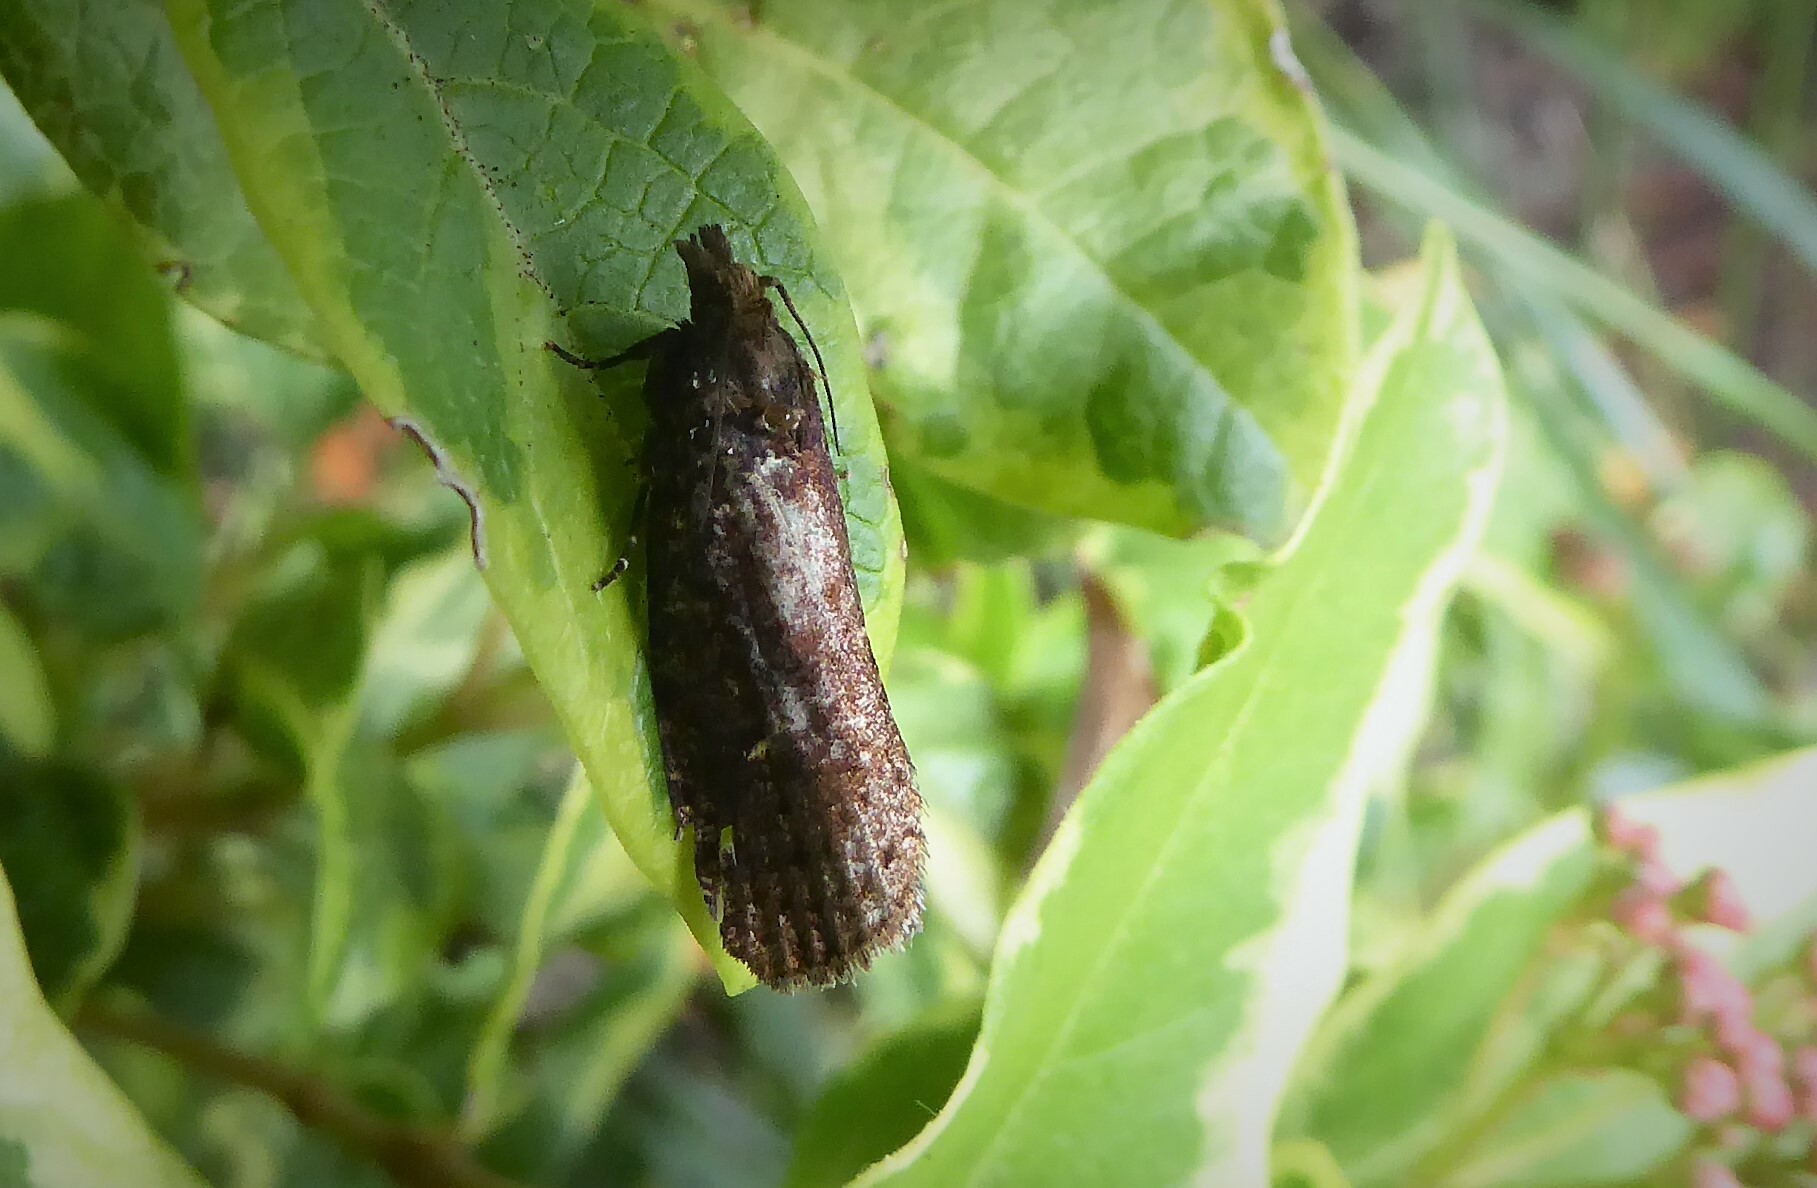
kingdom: Animalia
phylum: Arthropoda
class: Insecta
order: Lepidoptera
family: Tortricidae
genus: Cryptaspasma
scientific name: Cryptaspasma querula
